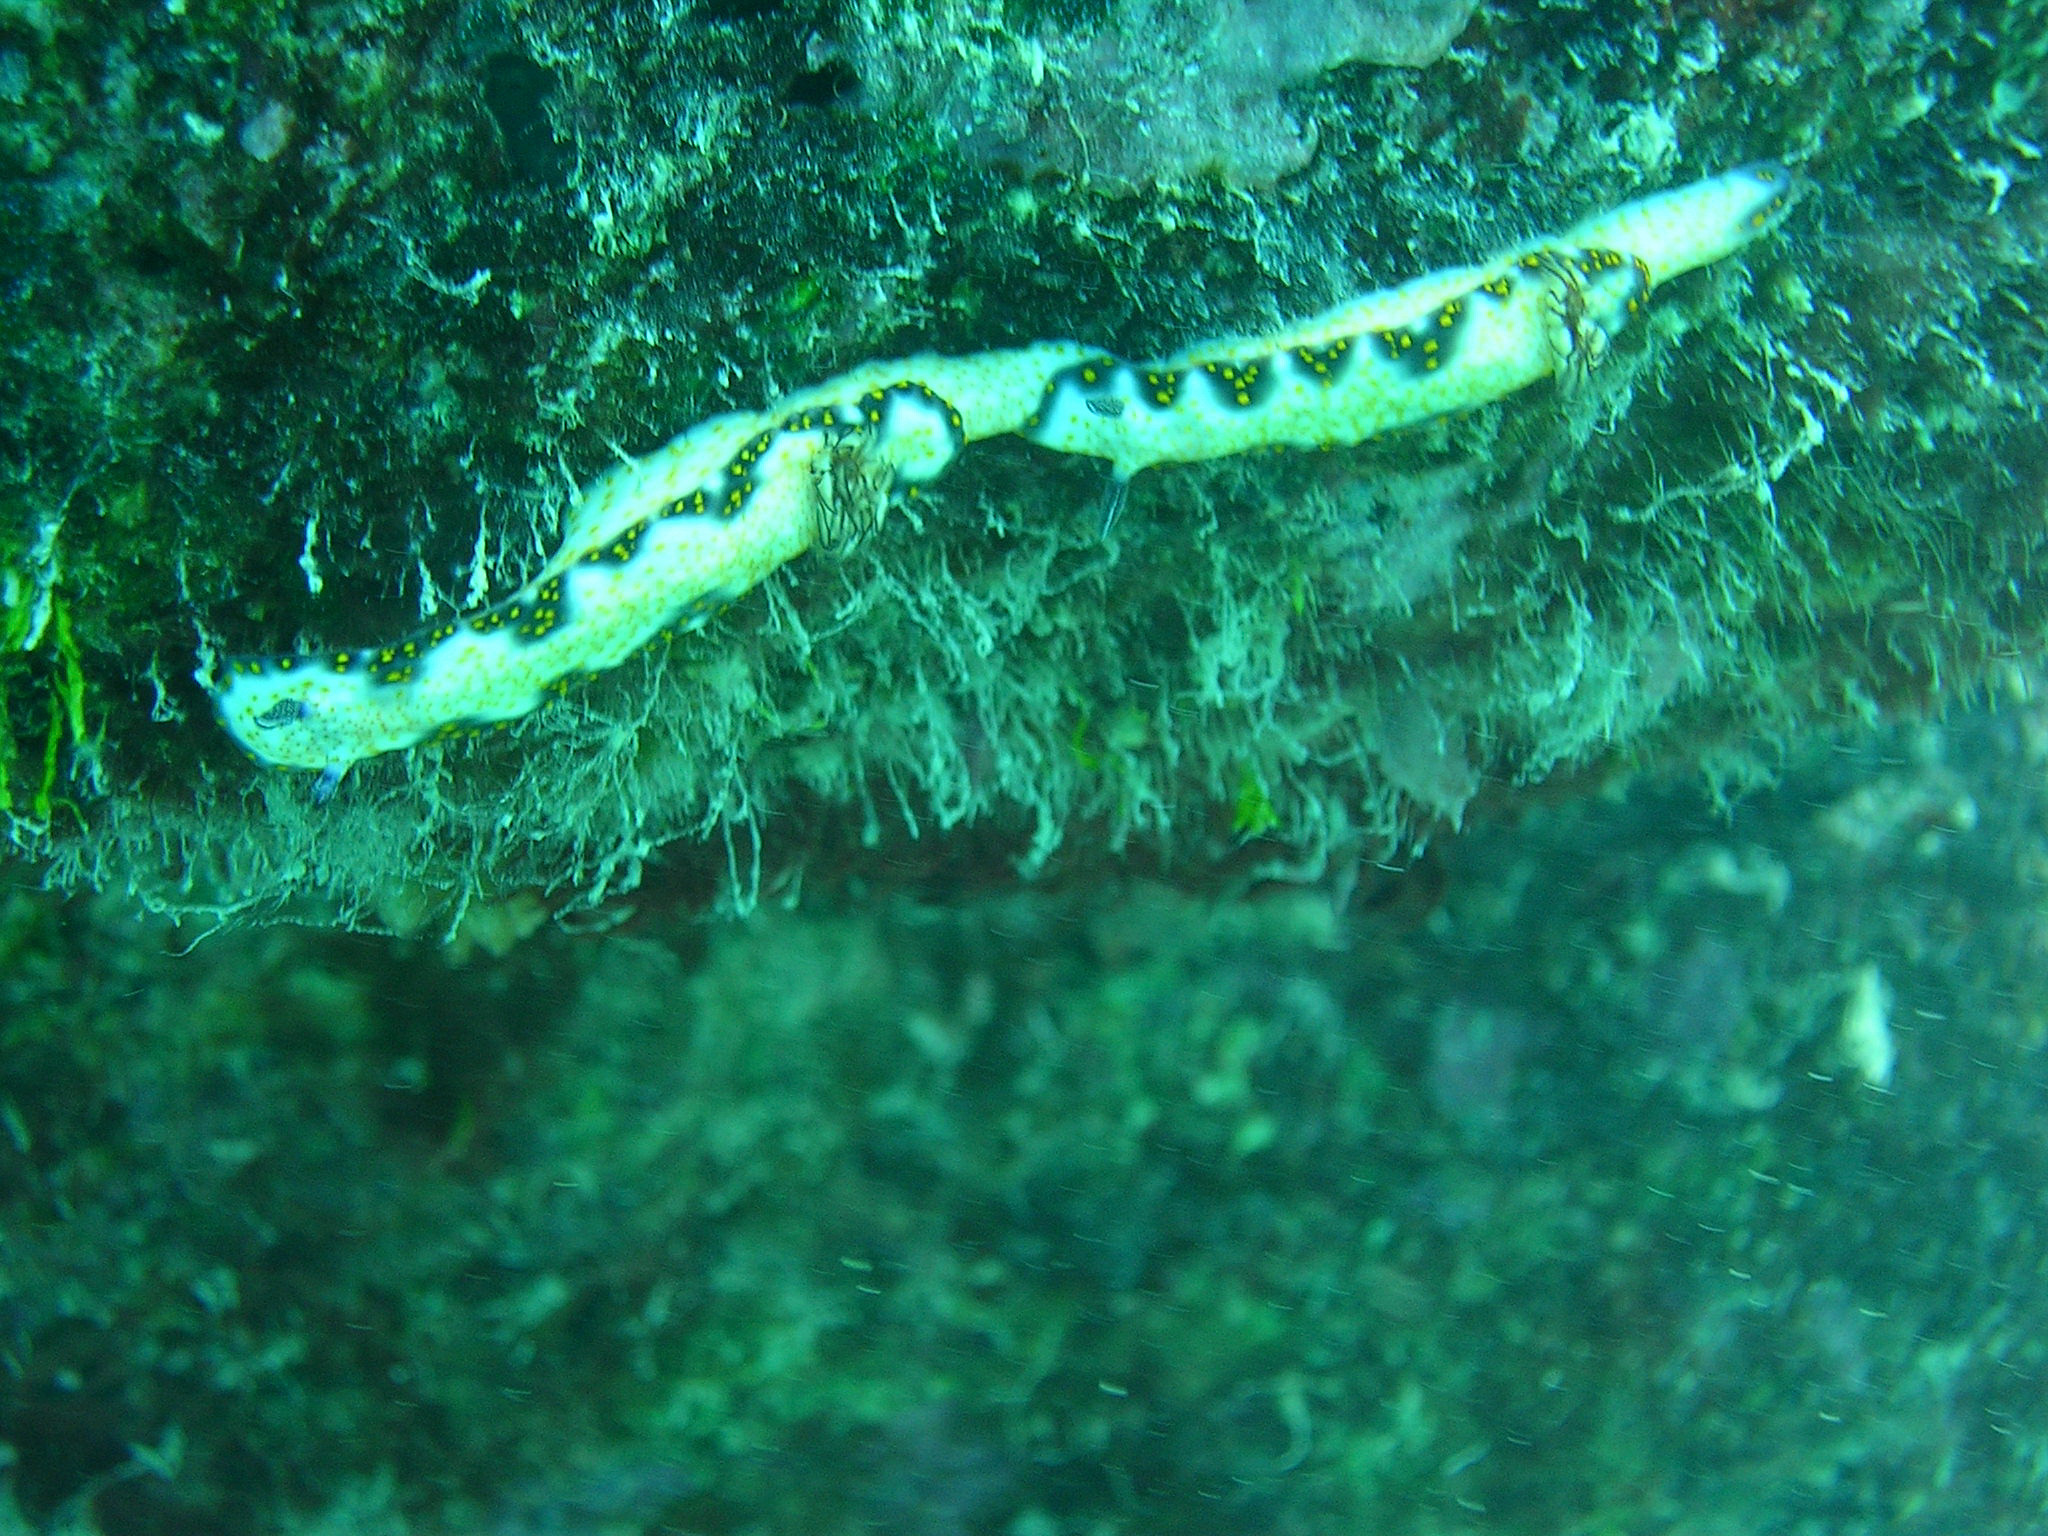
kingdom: Animalia
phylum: Mollusca
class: Gastropoda
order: Nudibranchia
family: Chromodorididae
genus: Hypselodoris
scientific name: Hypselodoris imperialis
